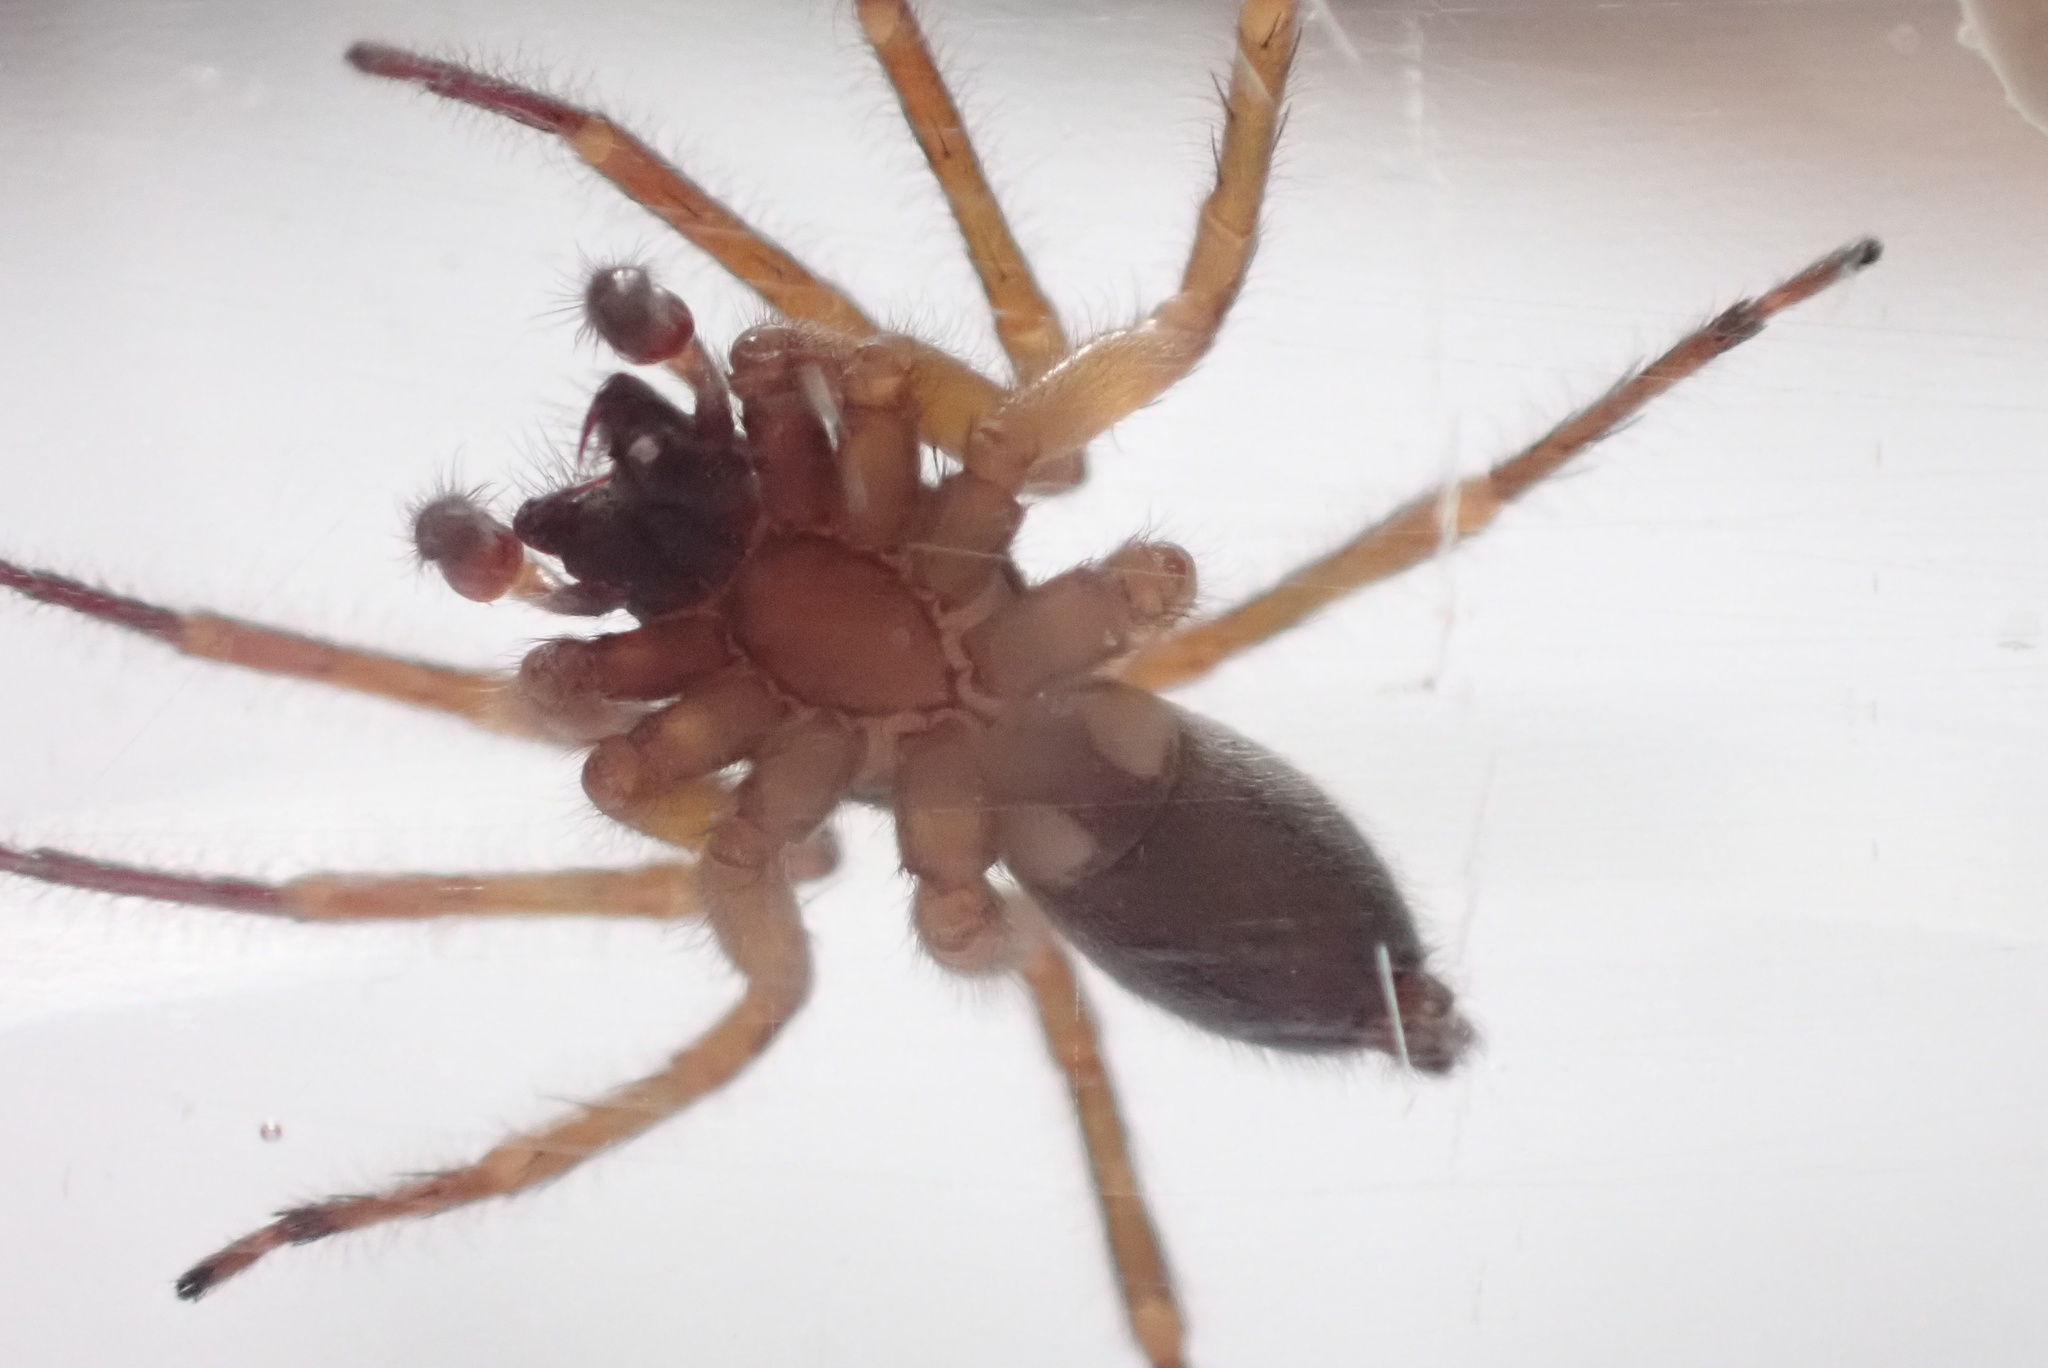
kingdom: Animalia
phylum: Arthropoda
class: Arachnida
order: Araneae
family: Gnaphosidae
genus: Scotophaeus
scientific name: Scotophaeus blackwalli
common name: Mouse spider
